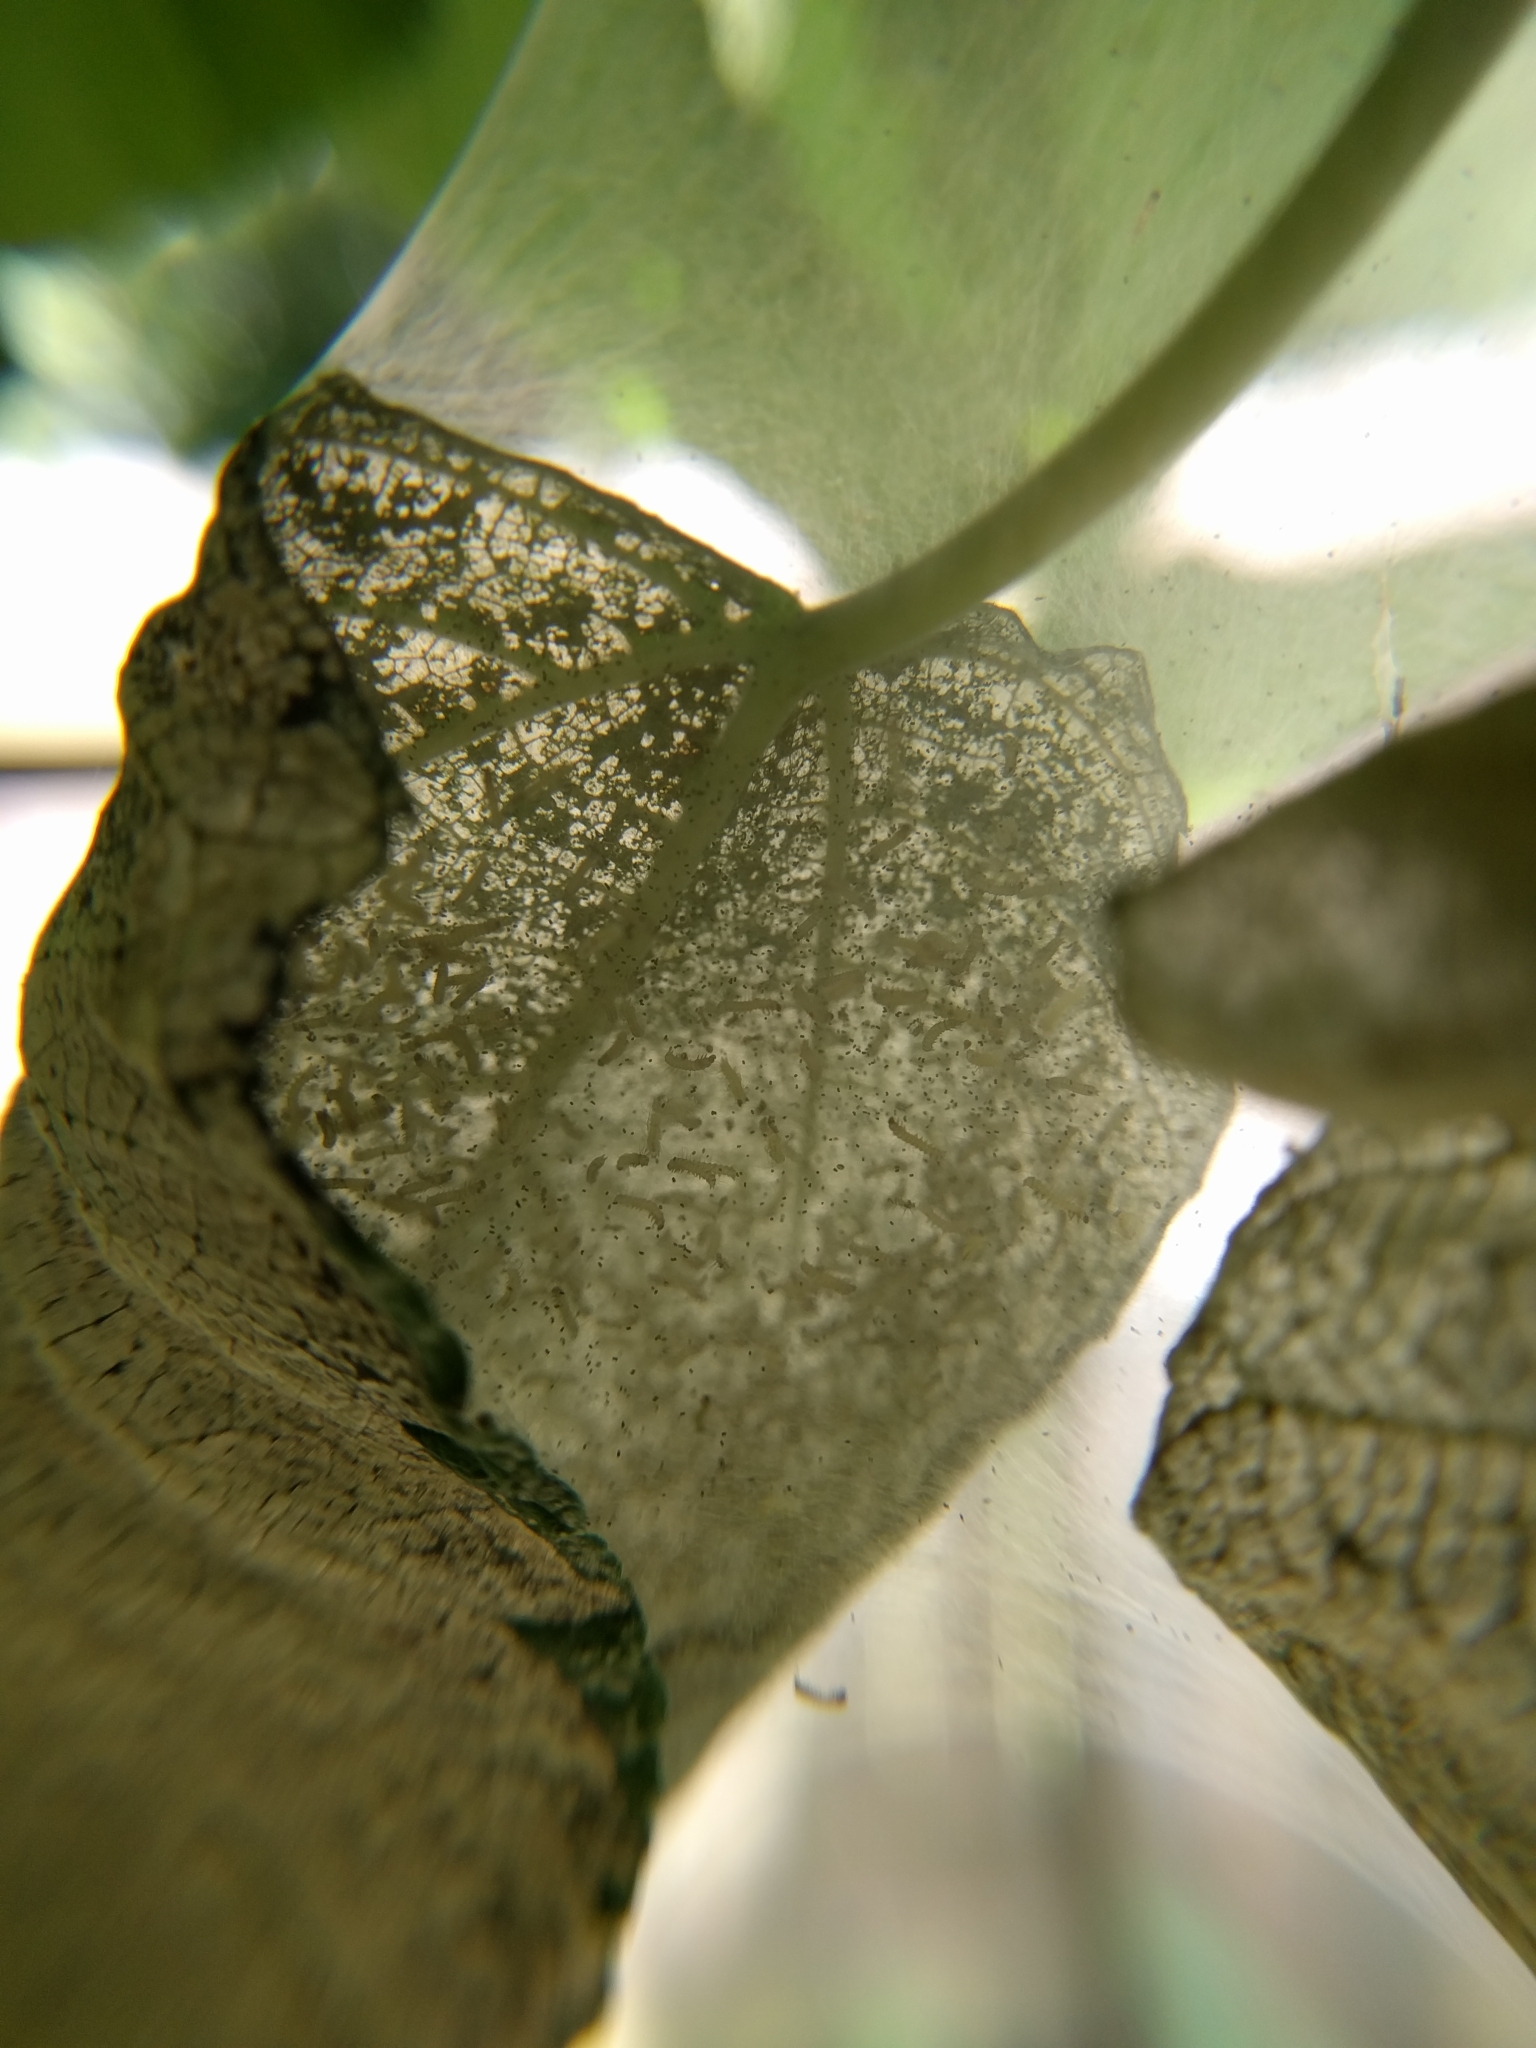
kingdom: Animalia
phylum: Arthropoda
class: Insecta
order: Lepidoptera
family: Erebidae
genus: Hyphantria
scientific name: Hyphantria cunea
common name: American white moth
